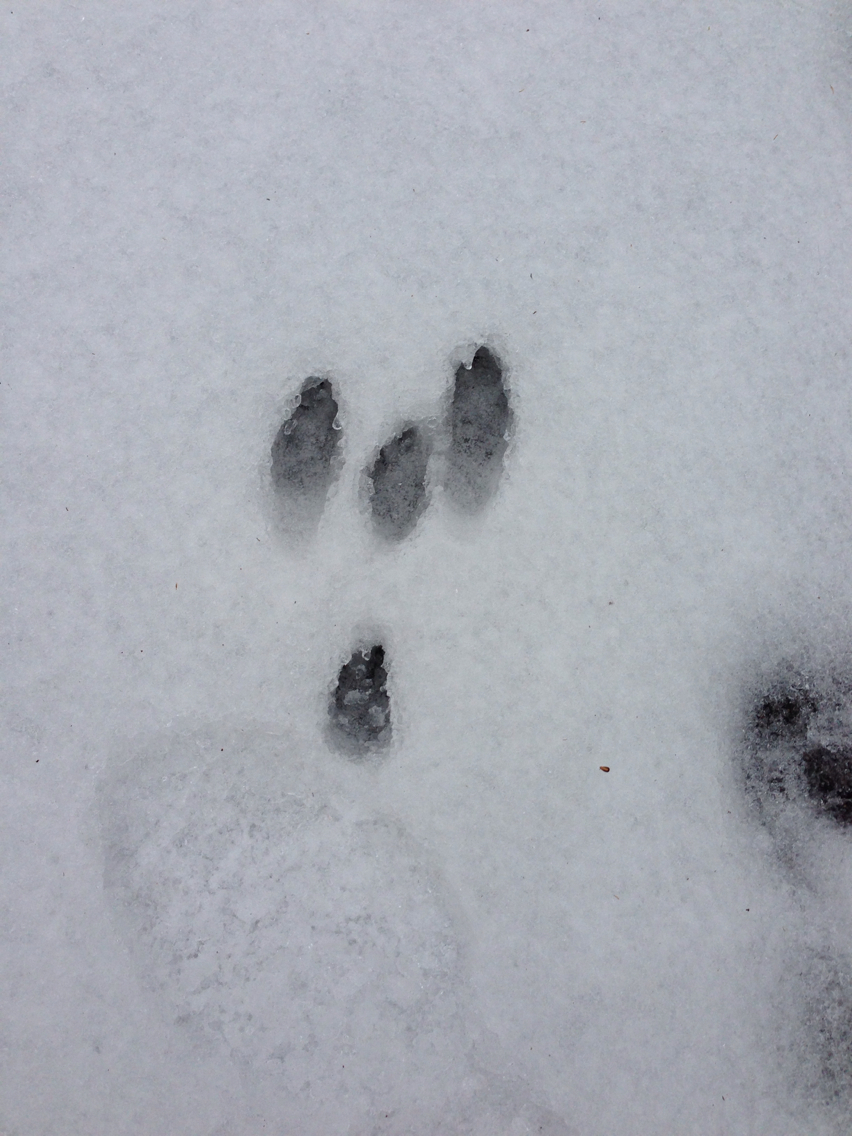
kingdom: Animalia
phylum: Chordata
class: Mammalia
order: Lagomorpha
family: Leporidae
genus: Sylvilagus
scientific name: Sylvilagus floridanus
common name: Eastern cottontail
